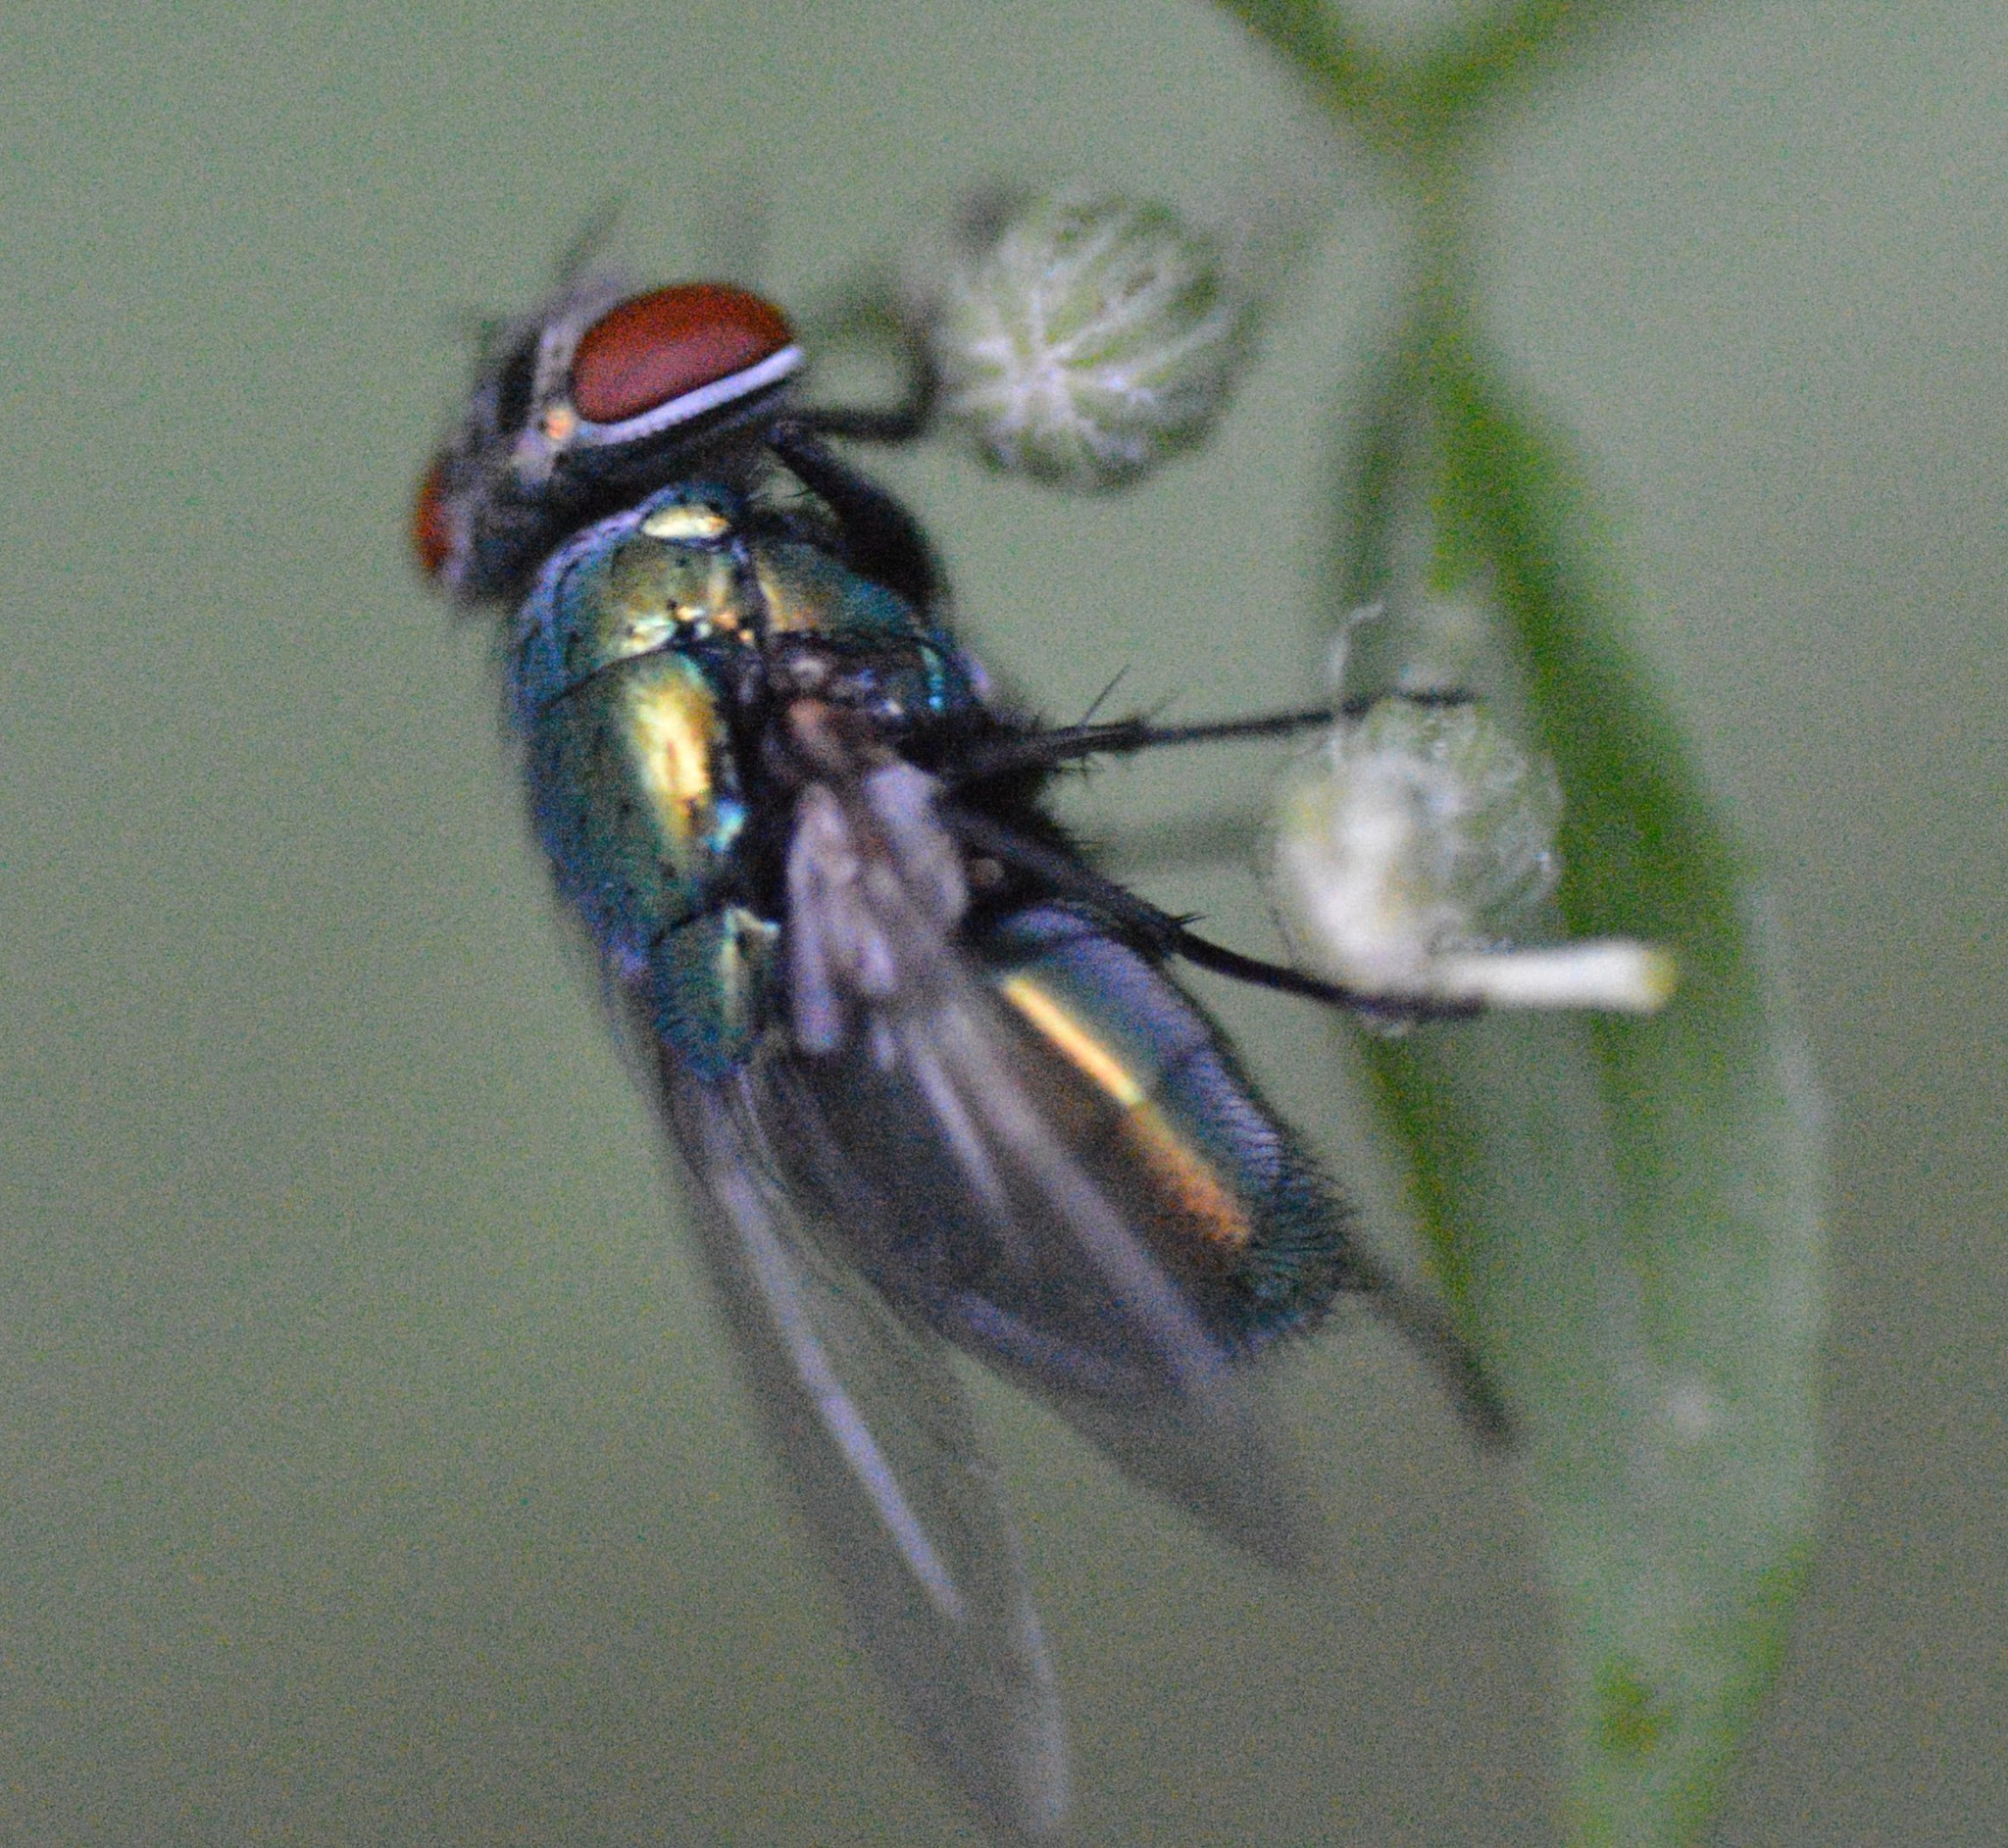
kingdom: Animalia
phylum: Arthropoda
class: Insecta
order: Diptera
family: Calliphoridae
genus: Lucilia
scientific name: Lucilia sericata
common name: Blow fly
